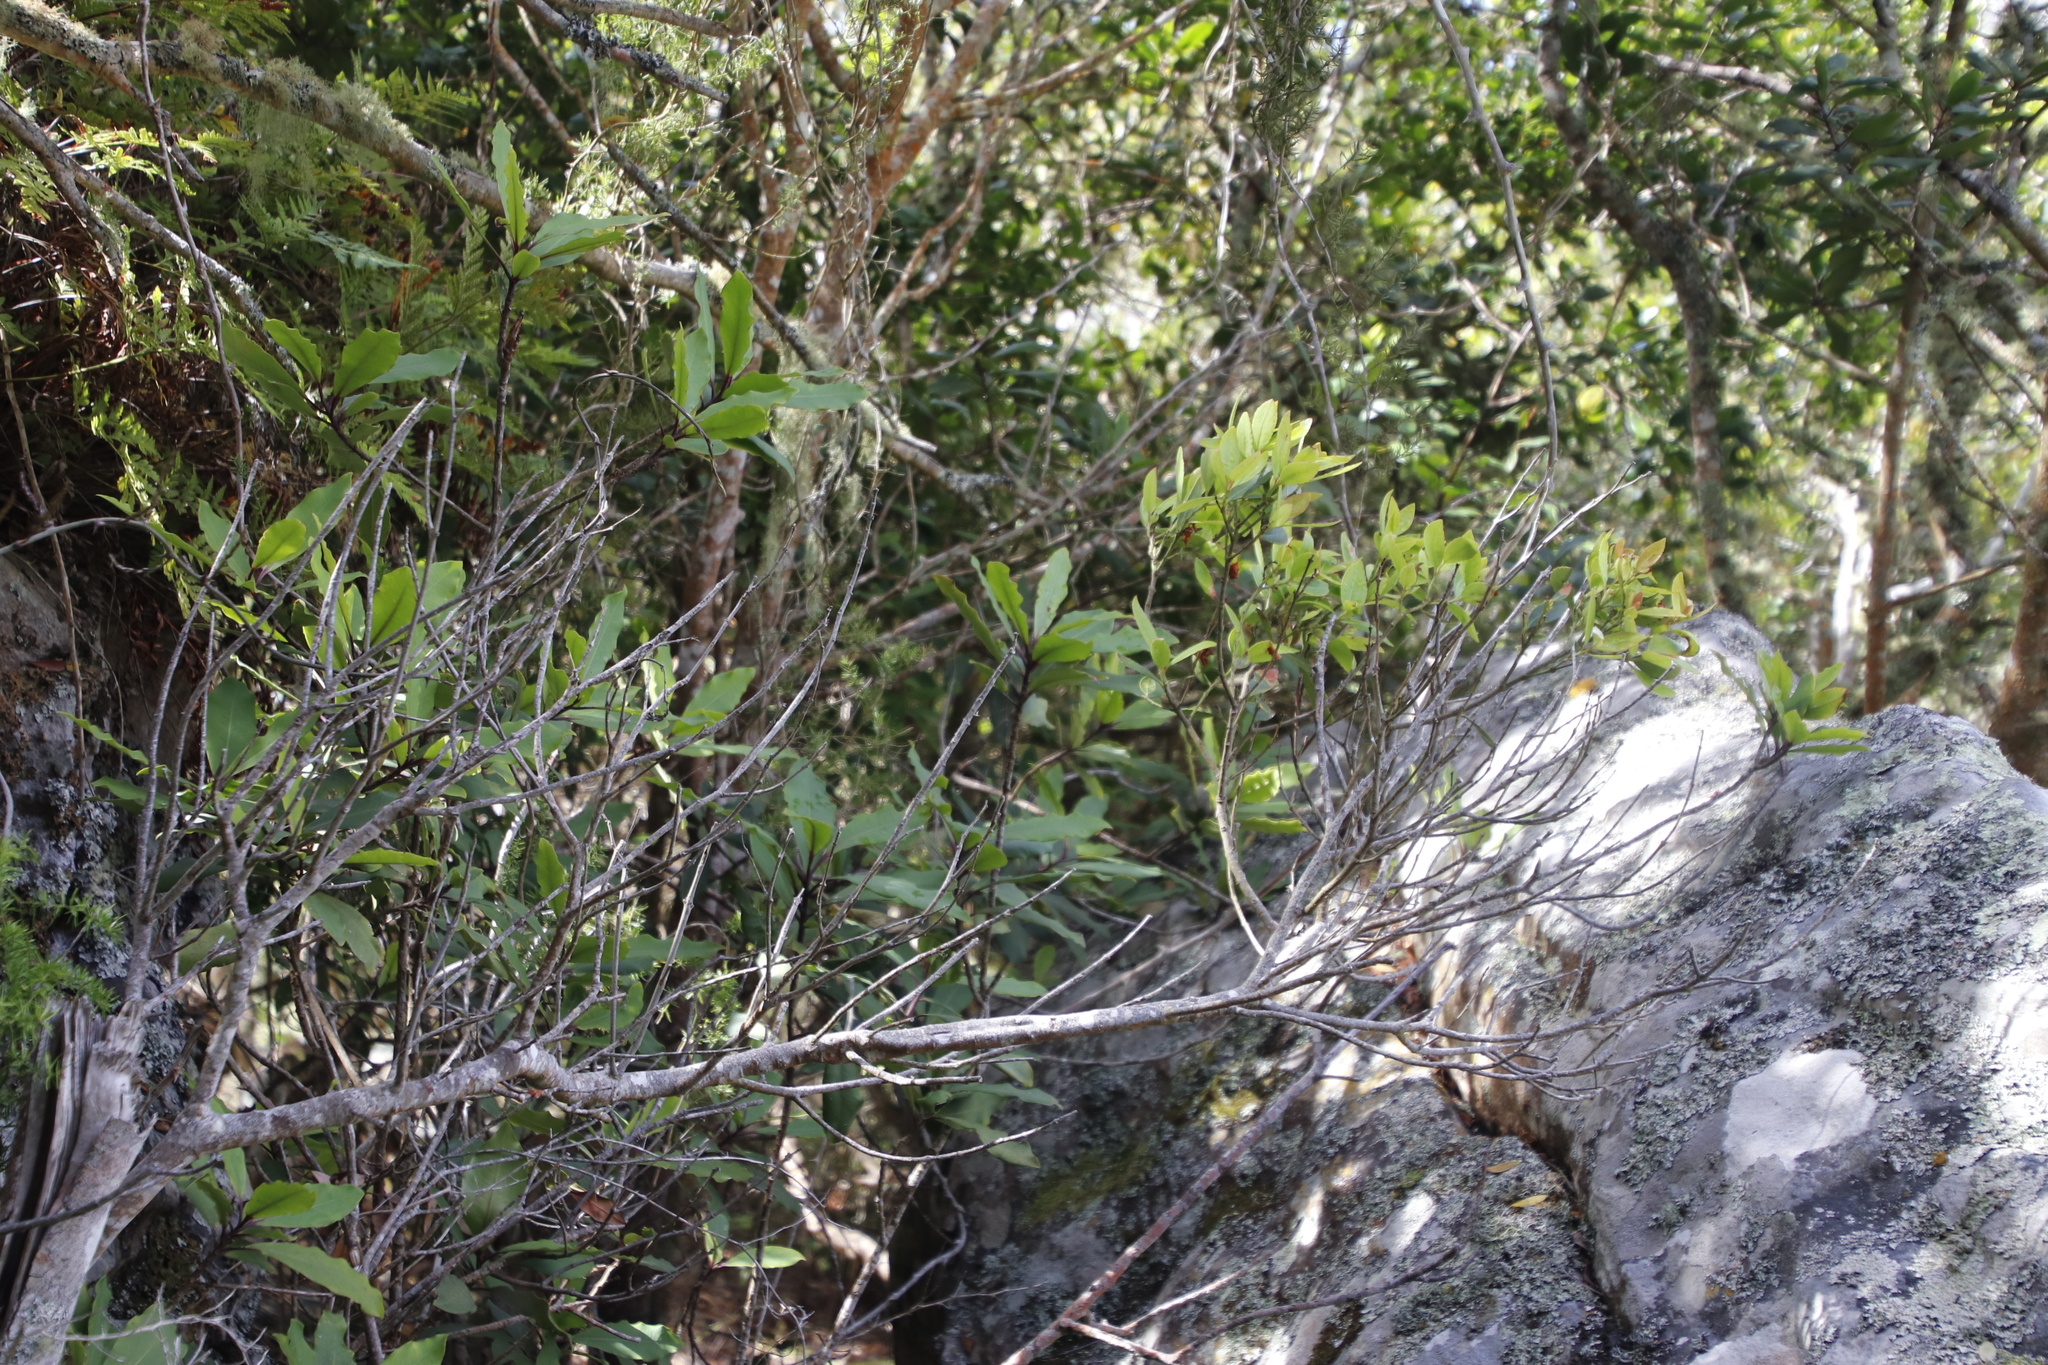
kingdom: Plantae
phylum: Tracheophyta
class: Magnoliopsida
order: Ericales
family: Primulaceae
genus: Myrsine
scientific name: Myrsine melanophloeos
